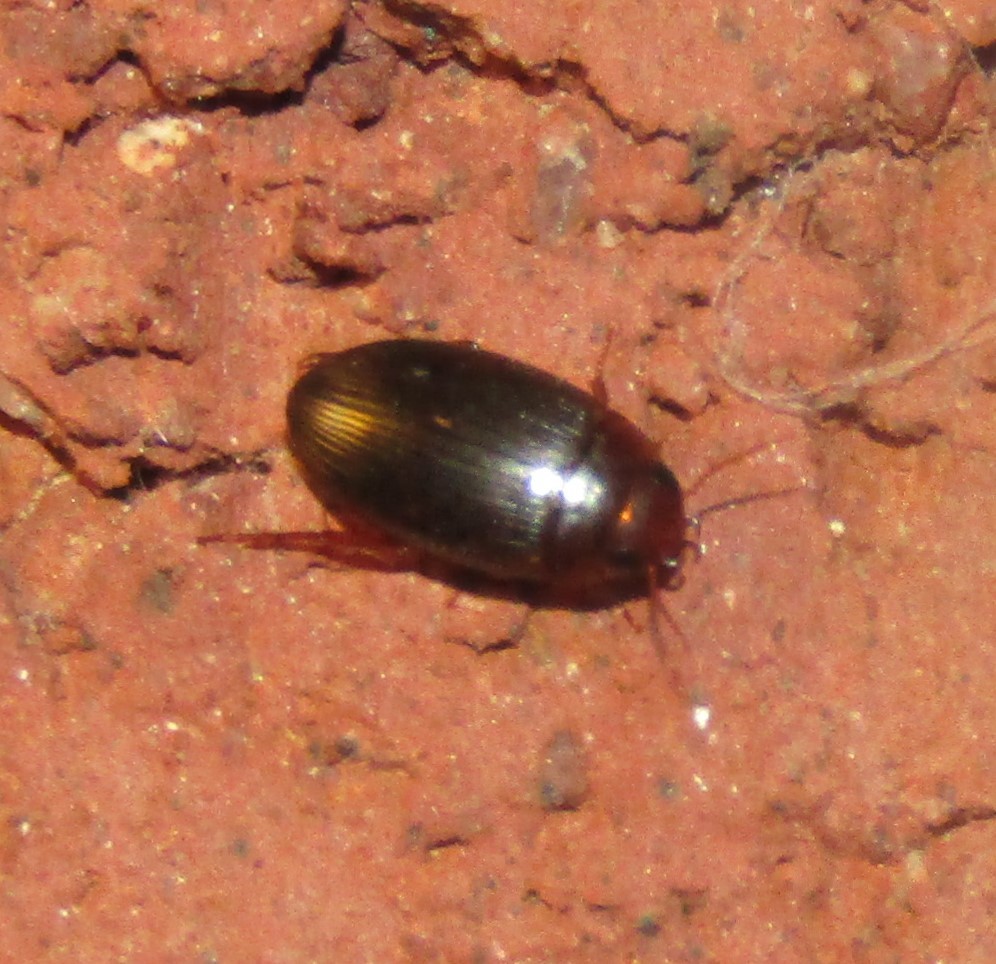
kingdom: Animalia
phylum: Arthropoda
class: Insecta
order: Coleoptera
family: Dytiscidae
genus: Copelatus
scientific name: Copelatus
